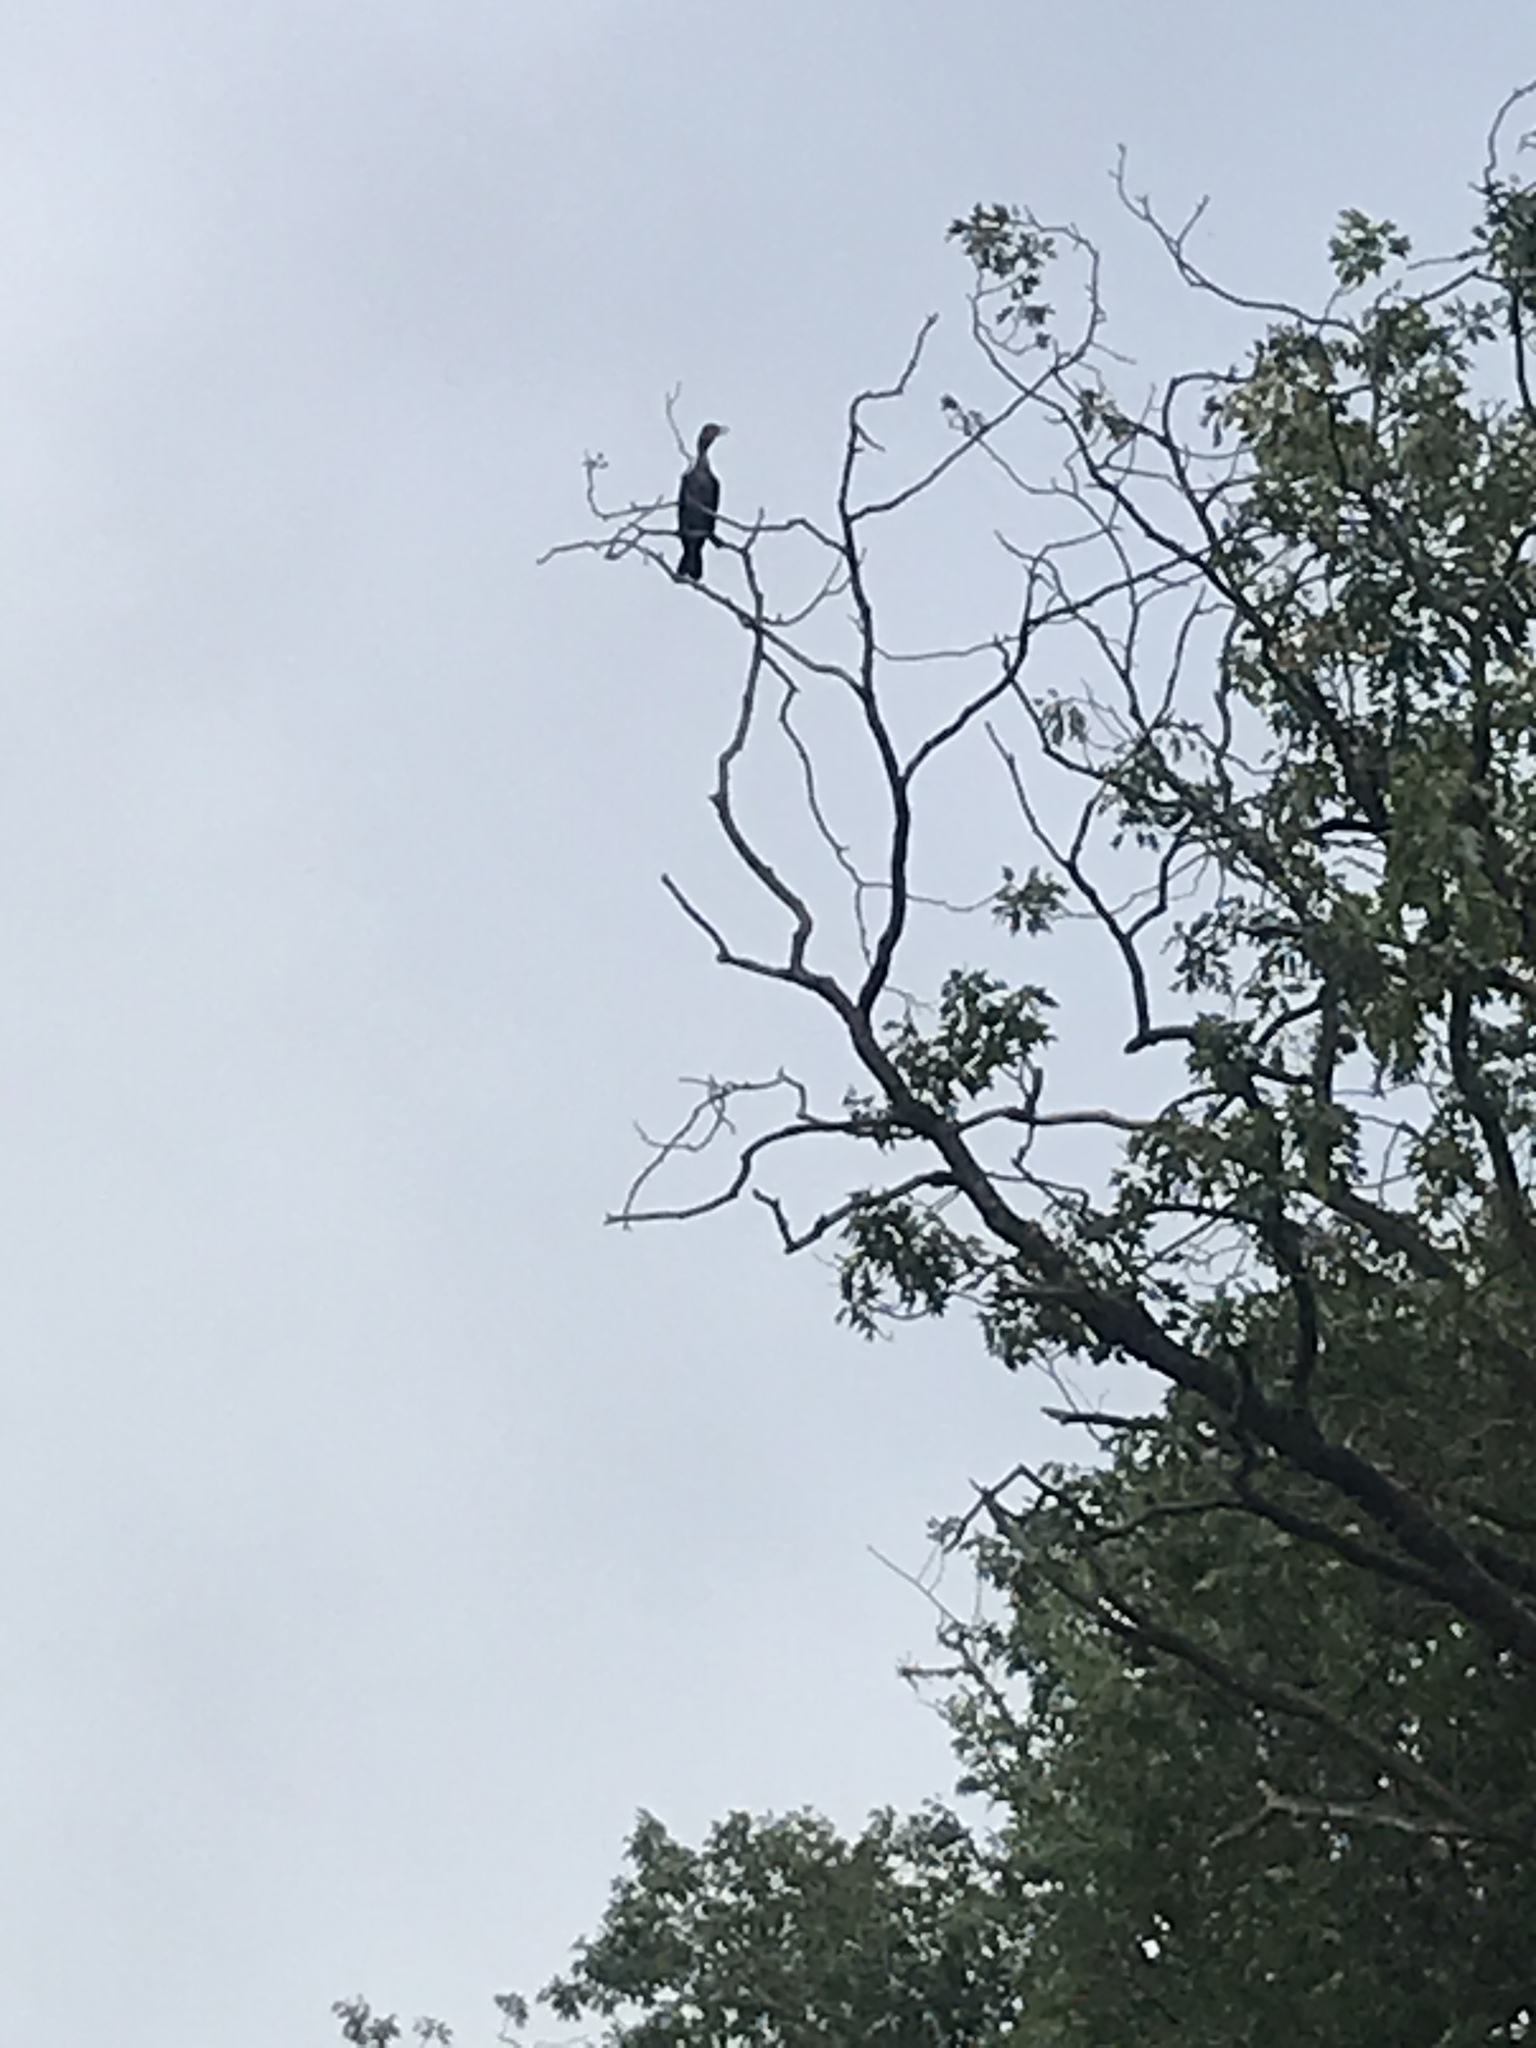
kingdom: Animalia
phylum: Chordata
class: Aves
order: Suliformes
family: Phalacrocoracidae
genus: Phalacrocorax
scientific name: Phalacrocorax auritus
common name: Double-crested cormorant
